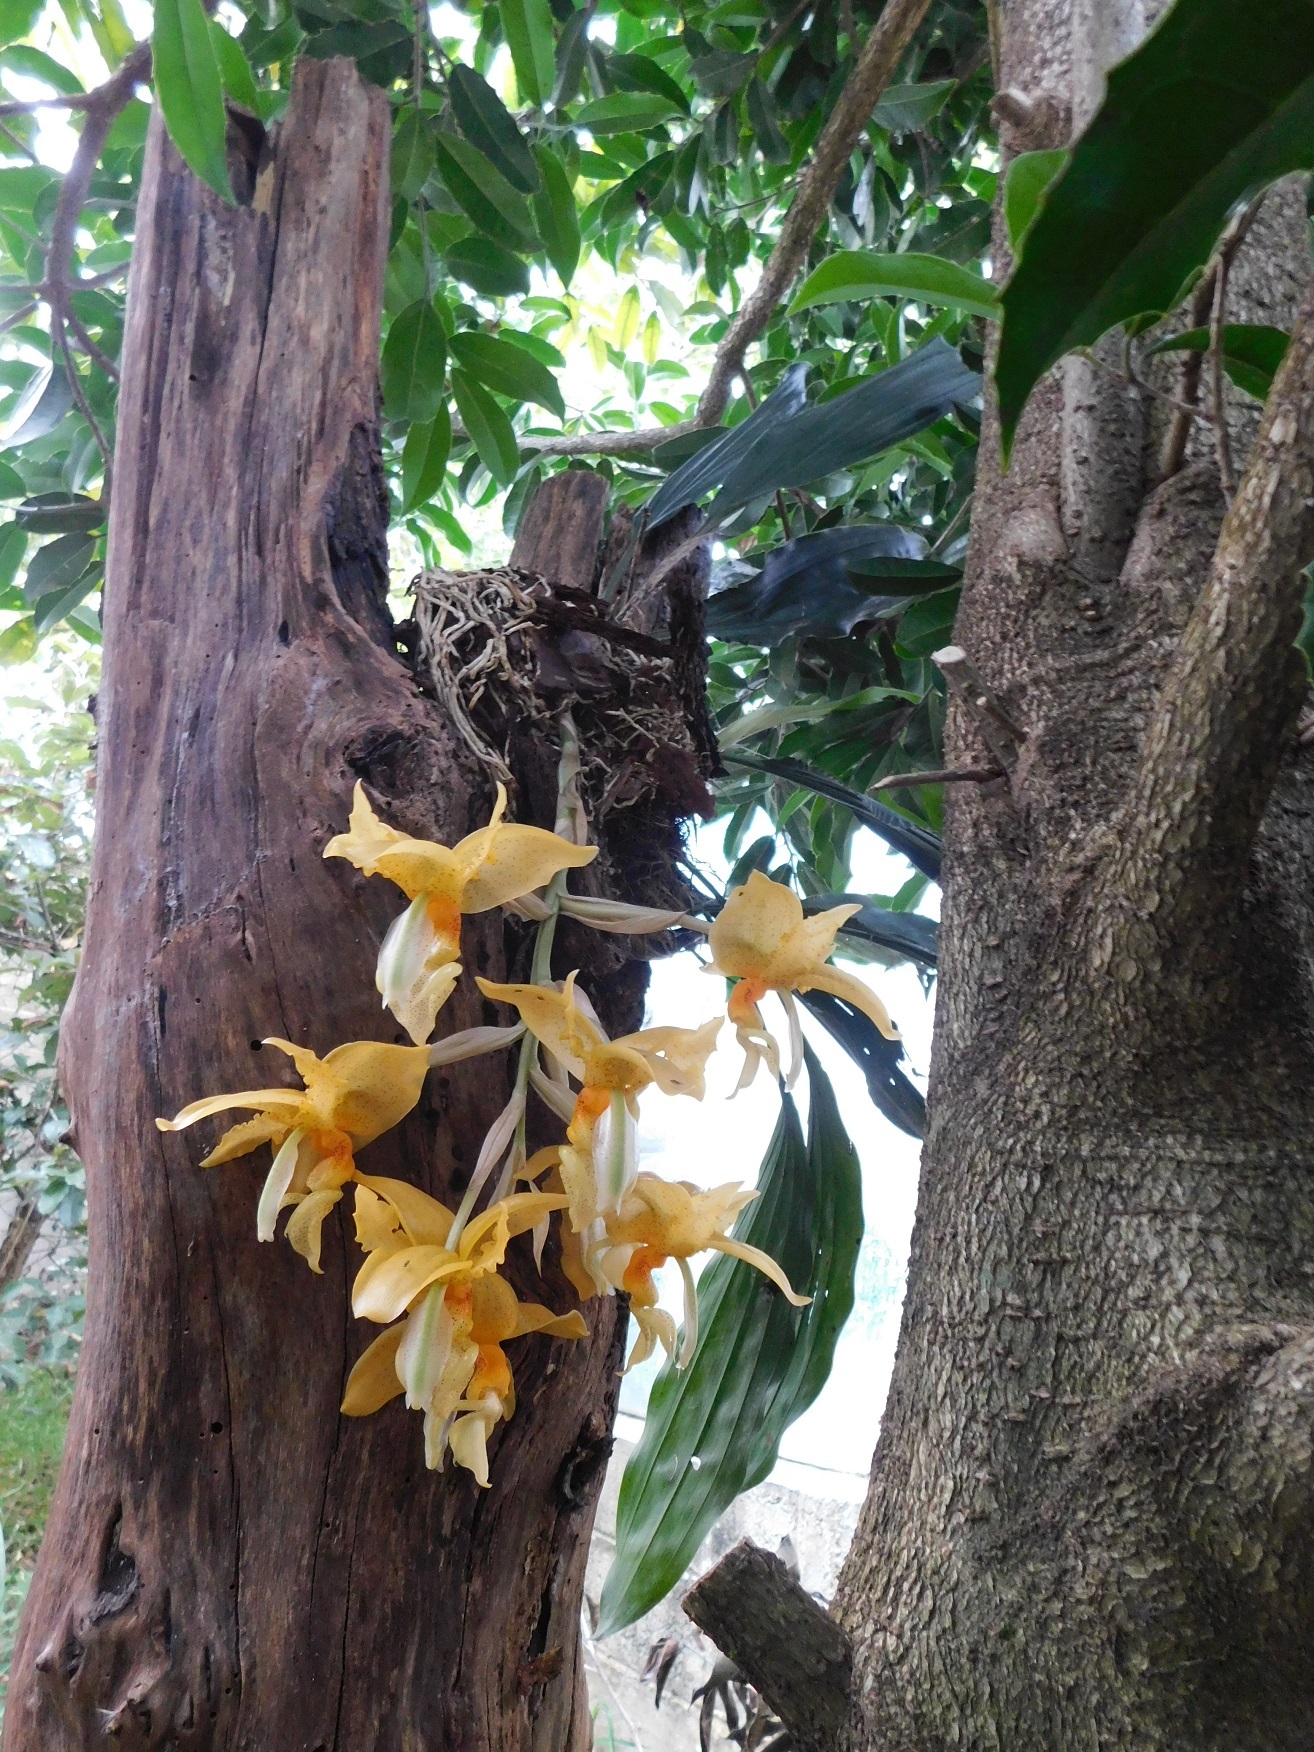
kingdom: Plantae
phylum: Tracheophyta
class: Liliopsida
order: Asparagales
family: Orchidaceae
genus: Stanhopea
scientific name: Stanhopea graveolens
